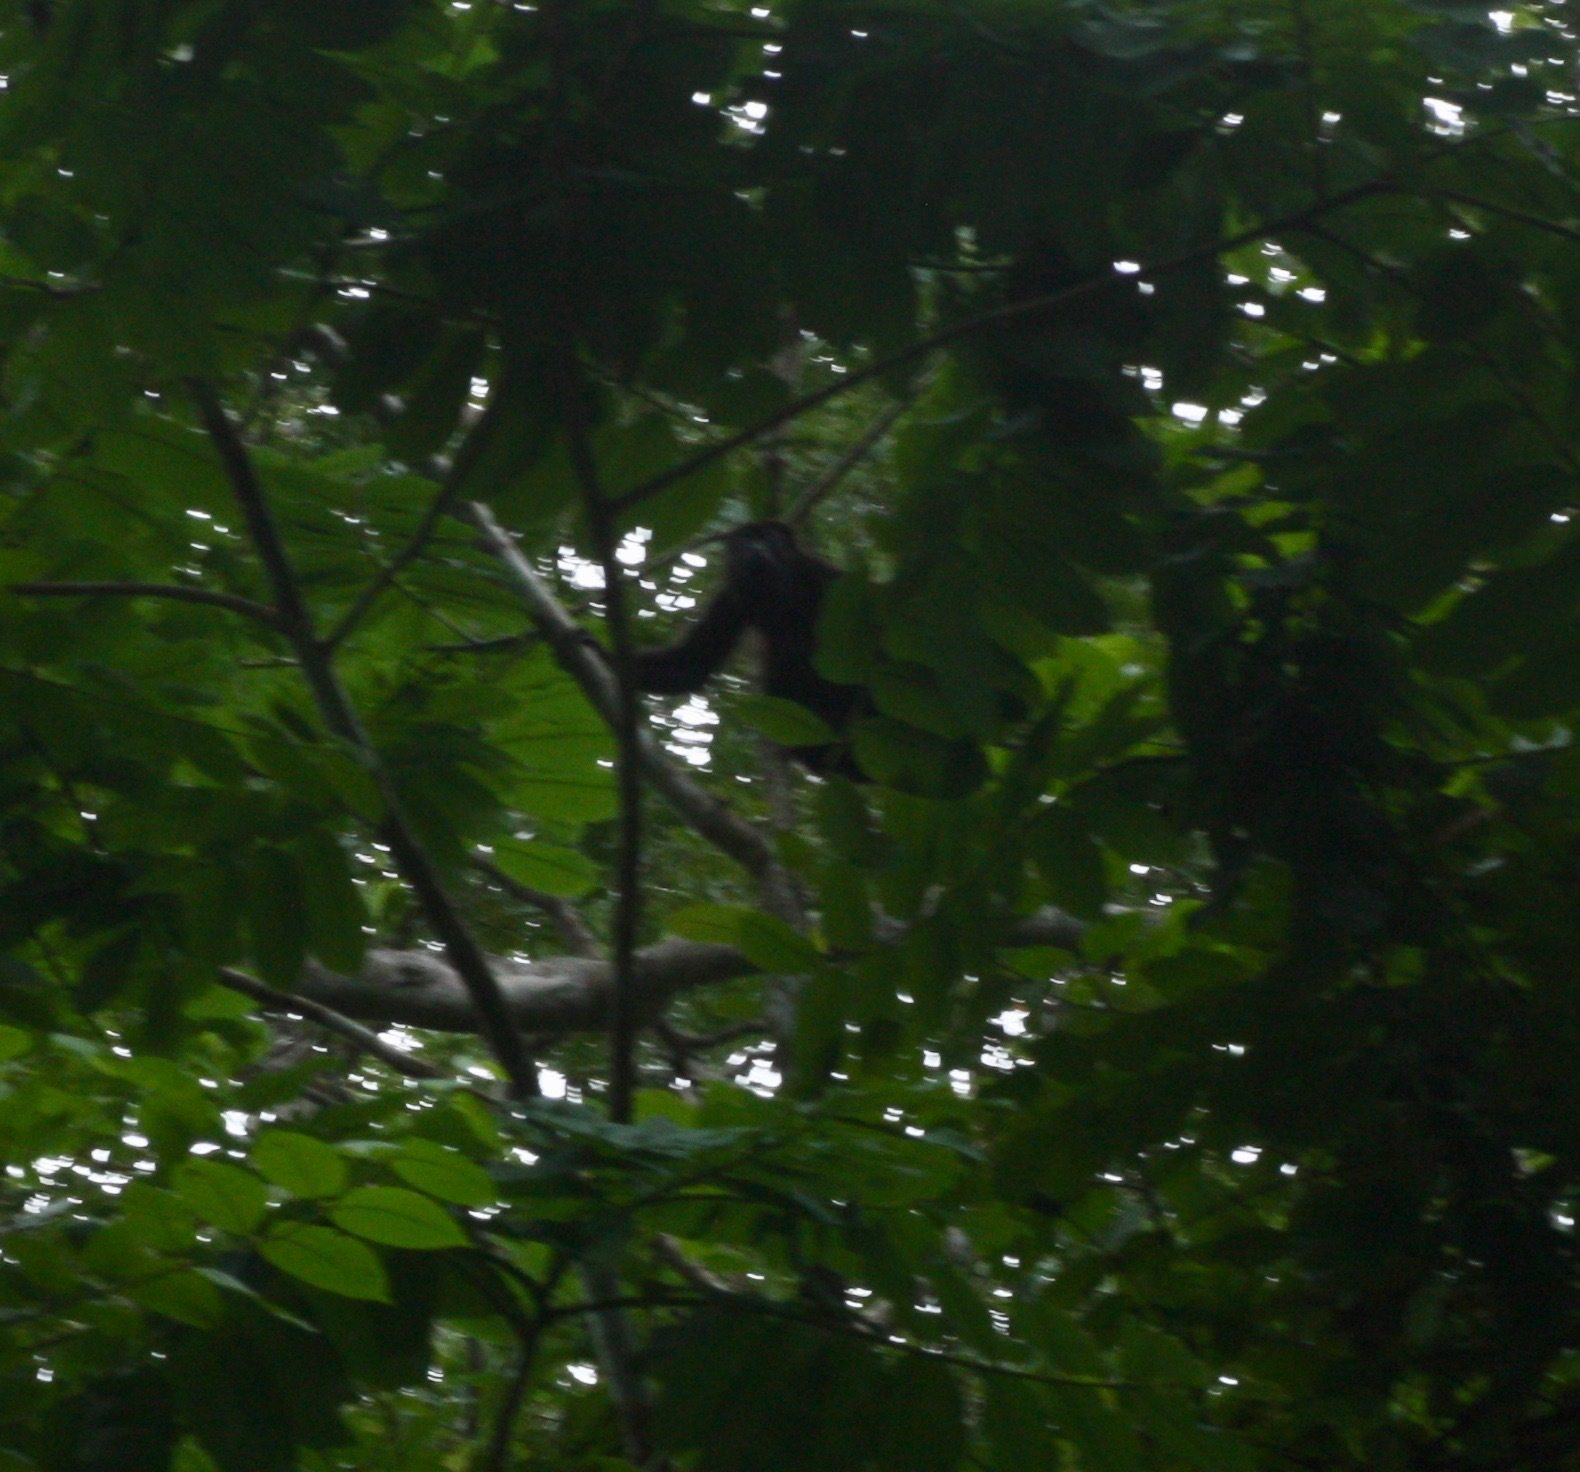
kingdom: Animalia
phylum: Chordata
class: Mammalia
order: Primates
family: Atelidae
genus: Alouatta
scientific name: Alouatta palliata
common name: Mantled howler
